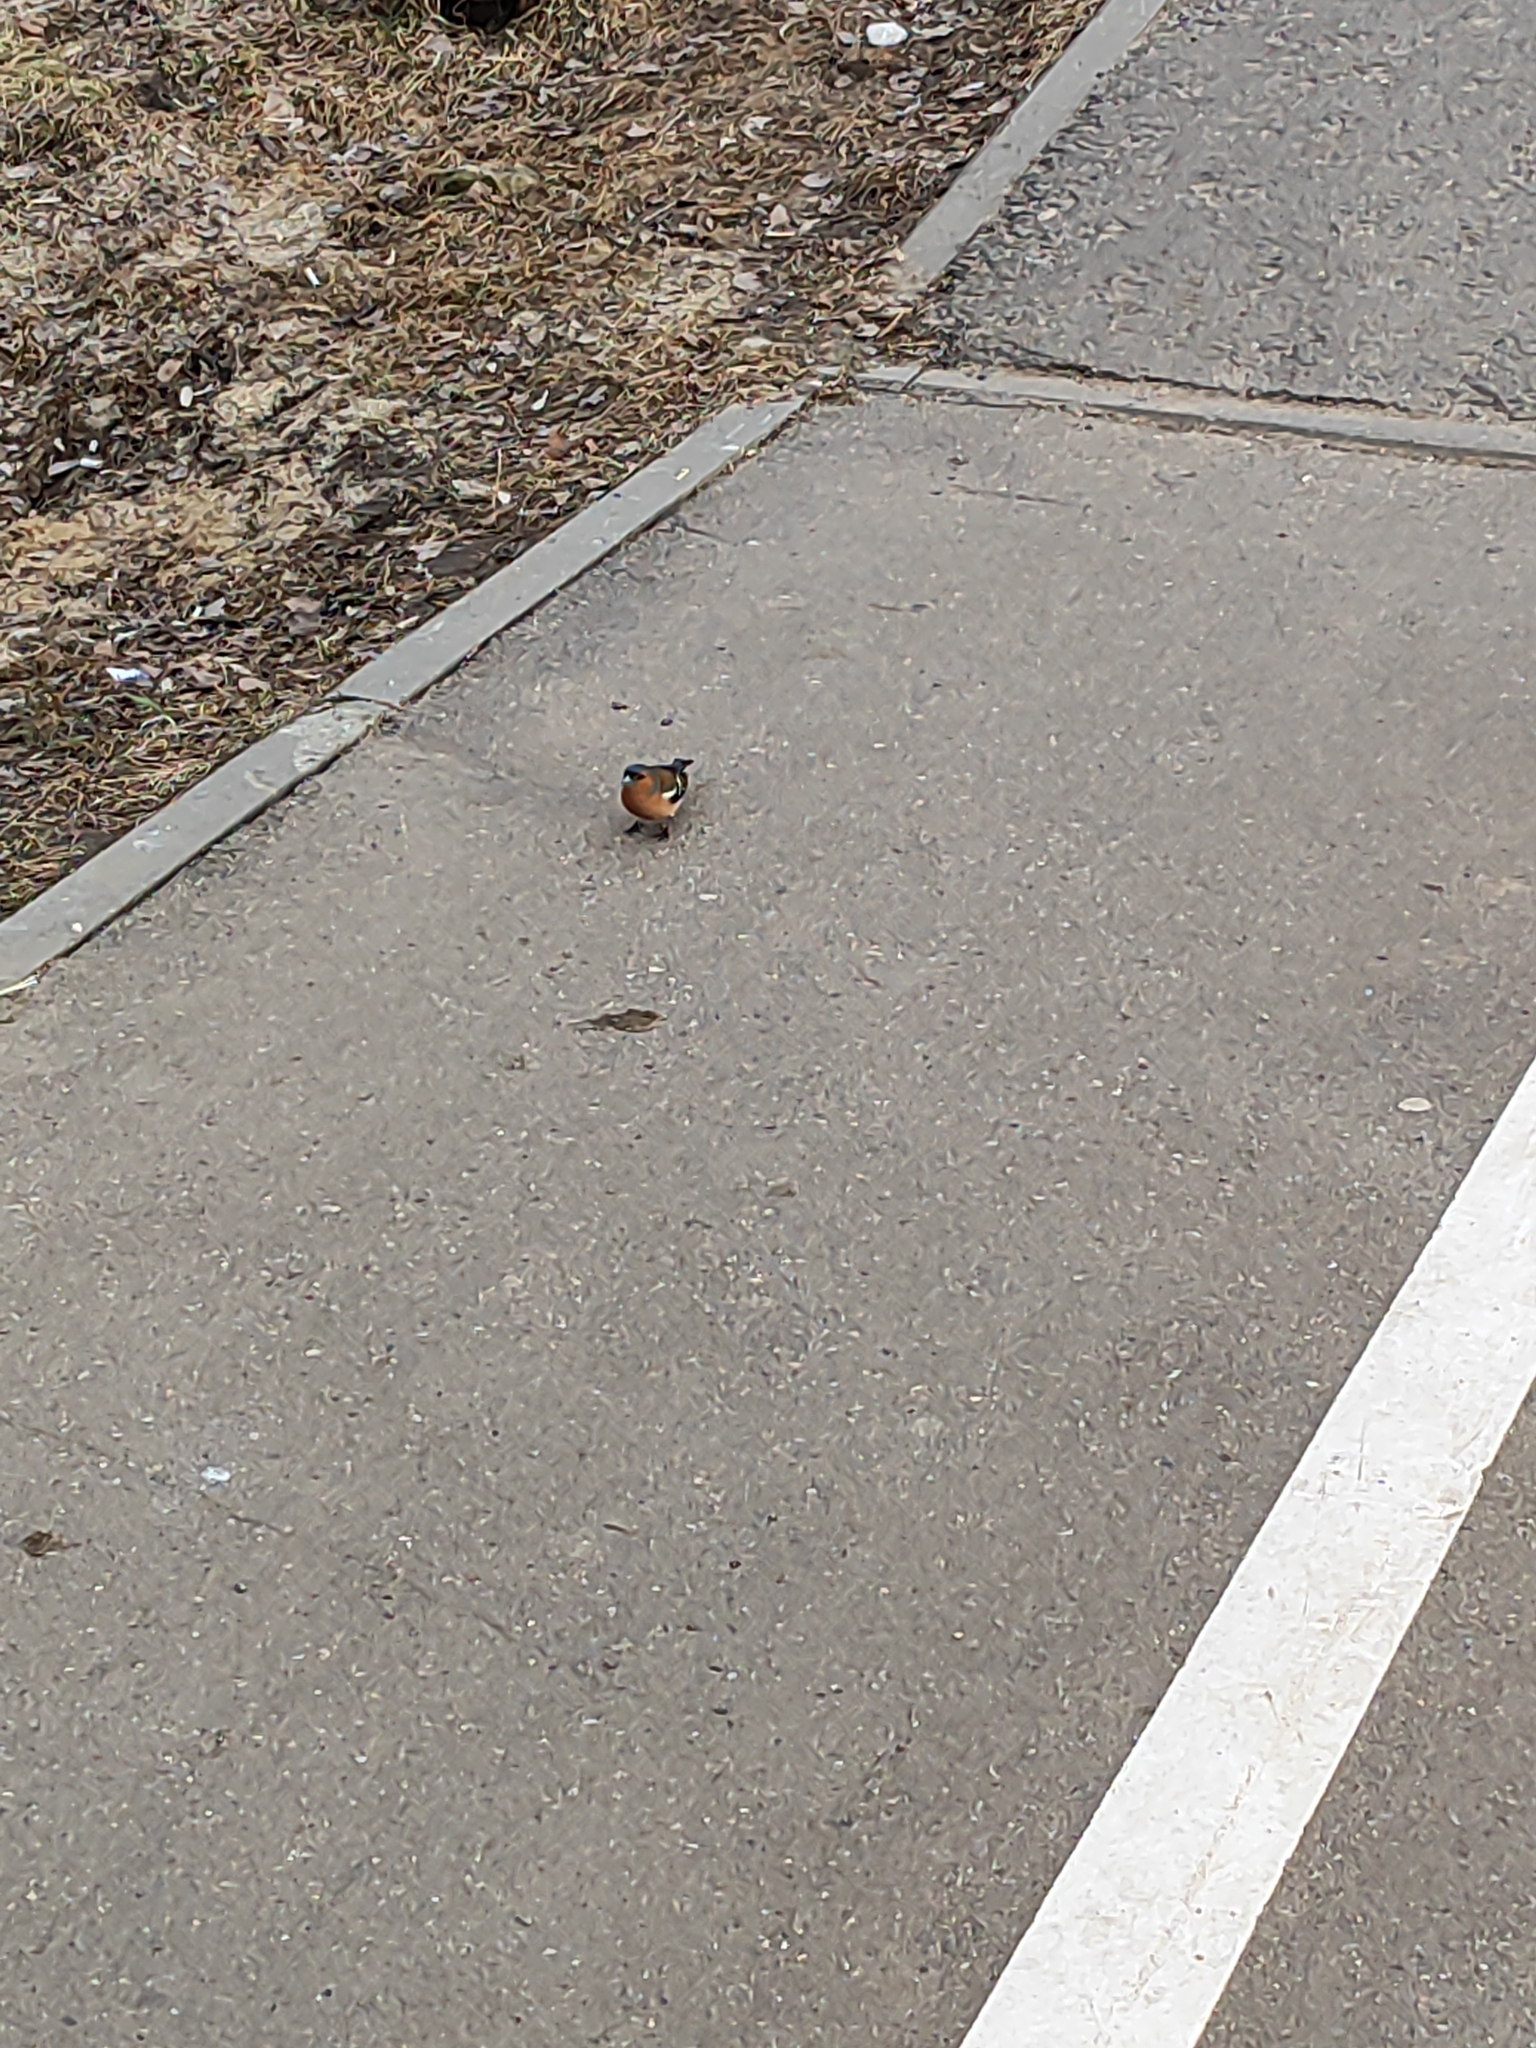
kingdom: Animalia
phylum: Chordata
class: Aves
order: Passeriformes
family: Fringillidae
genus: Fringilla
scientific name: Fringilla coelebs
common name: Common chaffinch
